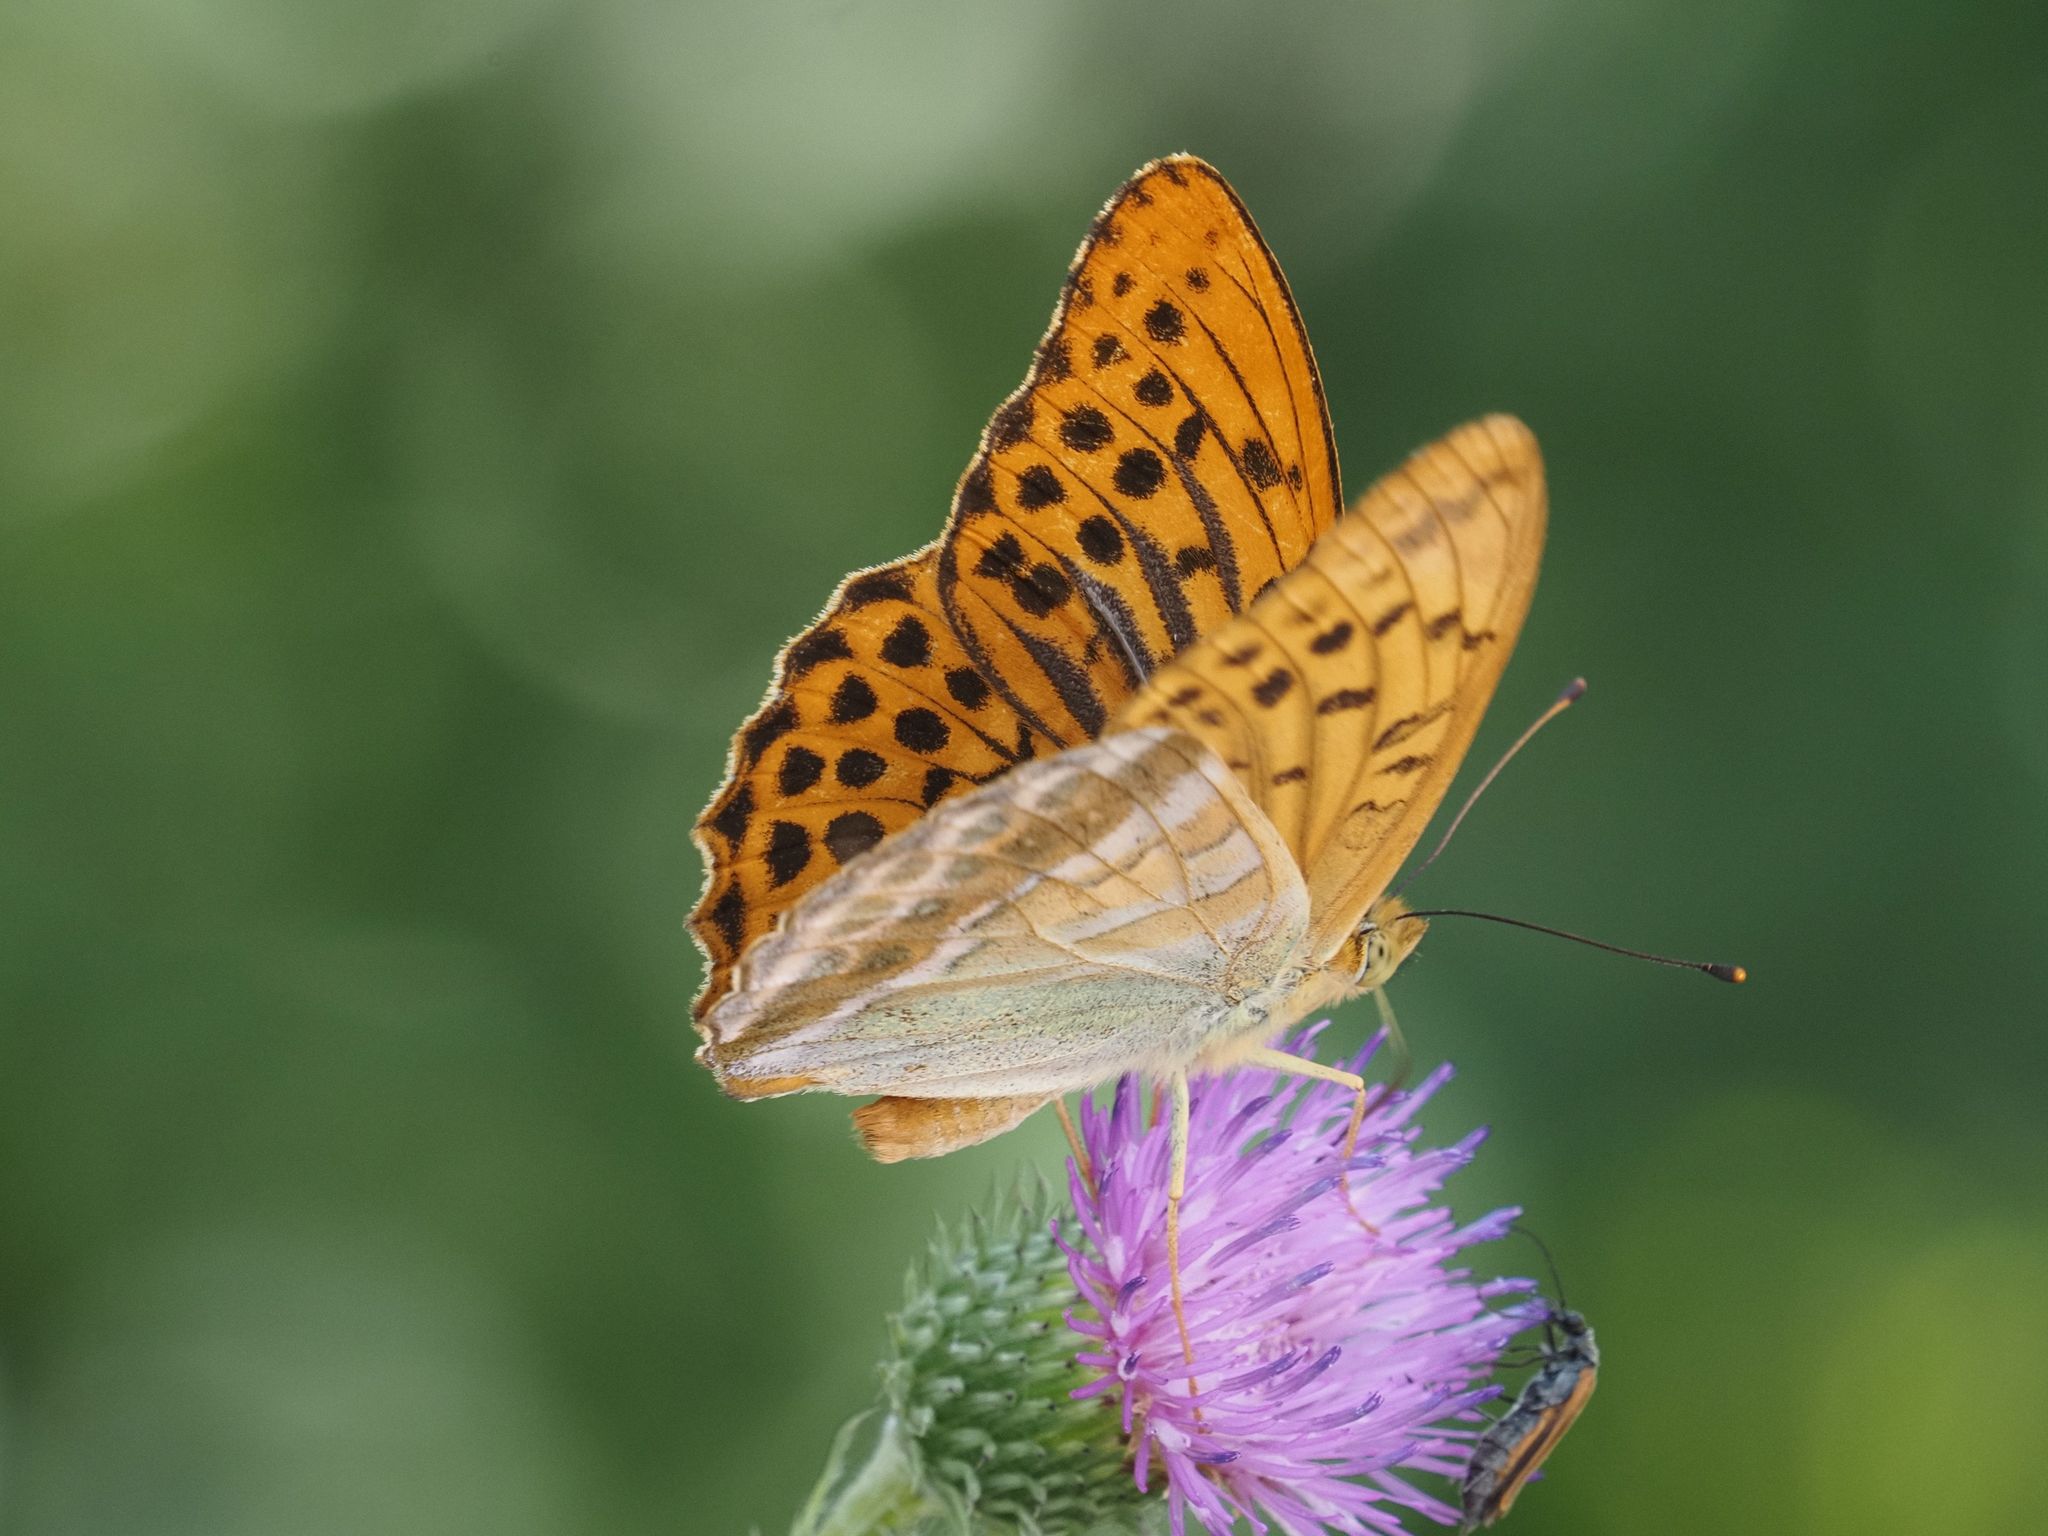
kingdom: Animalia
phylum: Arthropoda
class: Insecta
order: Lepidoptera
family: Nymphalidae
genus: Argynnis
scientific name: Argynnis paphia
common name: Silver-washed fritillary
